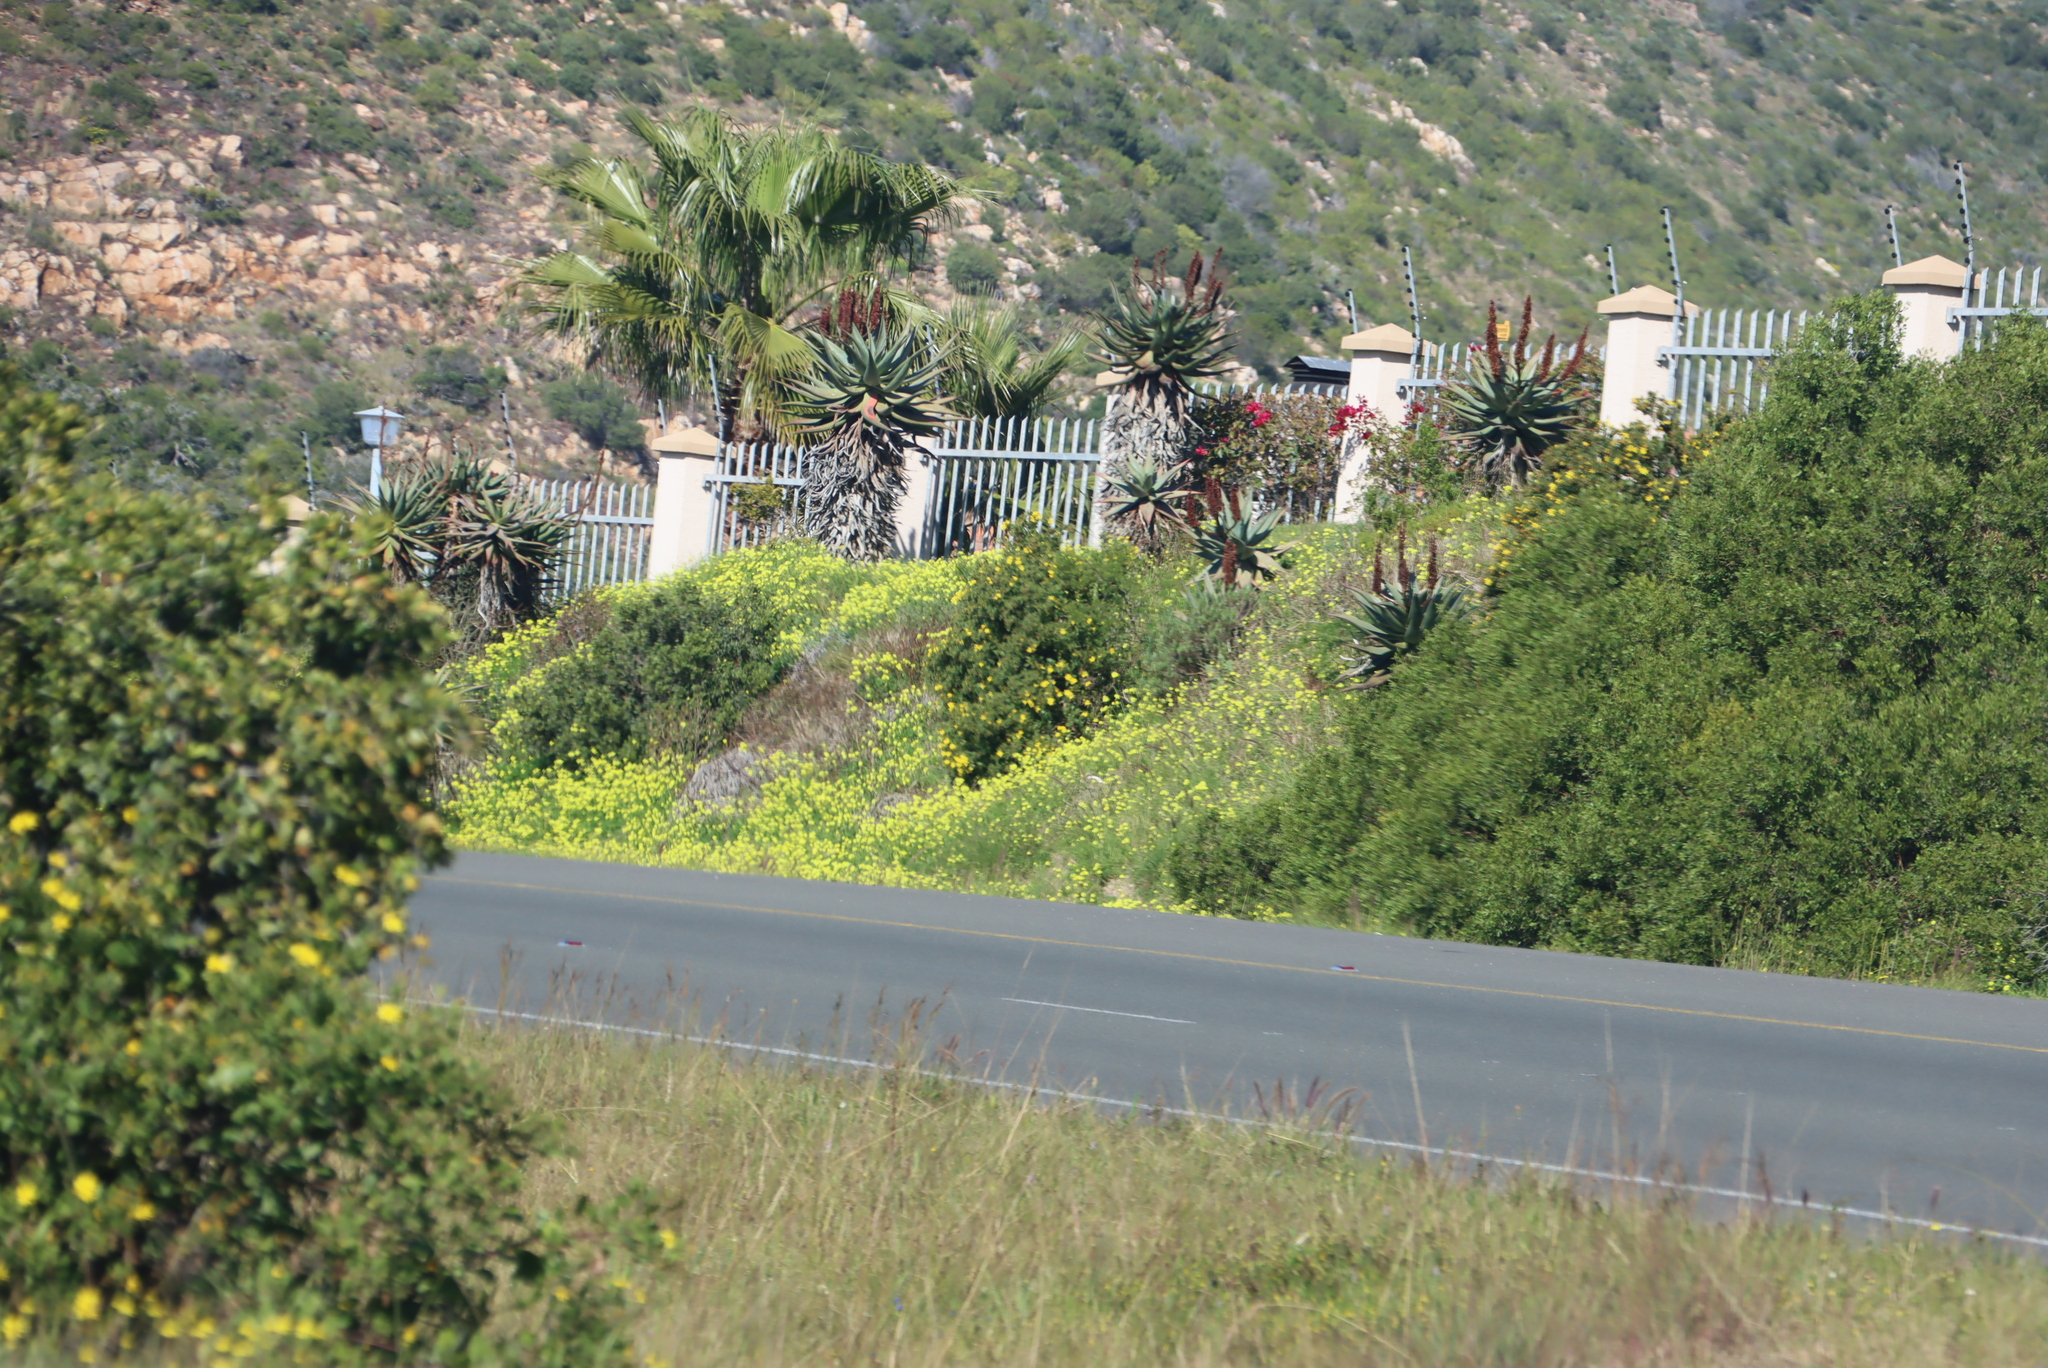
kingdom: Plantae
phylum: Tracheophyta
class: Magnoliopsida
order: Oxalidales
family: Oxalidaceae
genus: Oxalis
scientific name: Oxalis pes-caprae
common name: Bermuda-buttercup
